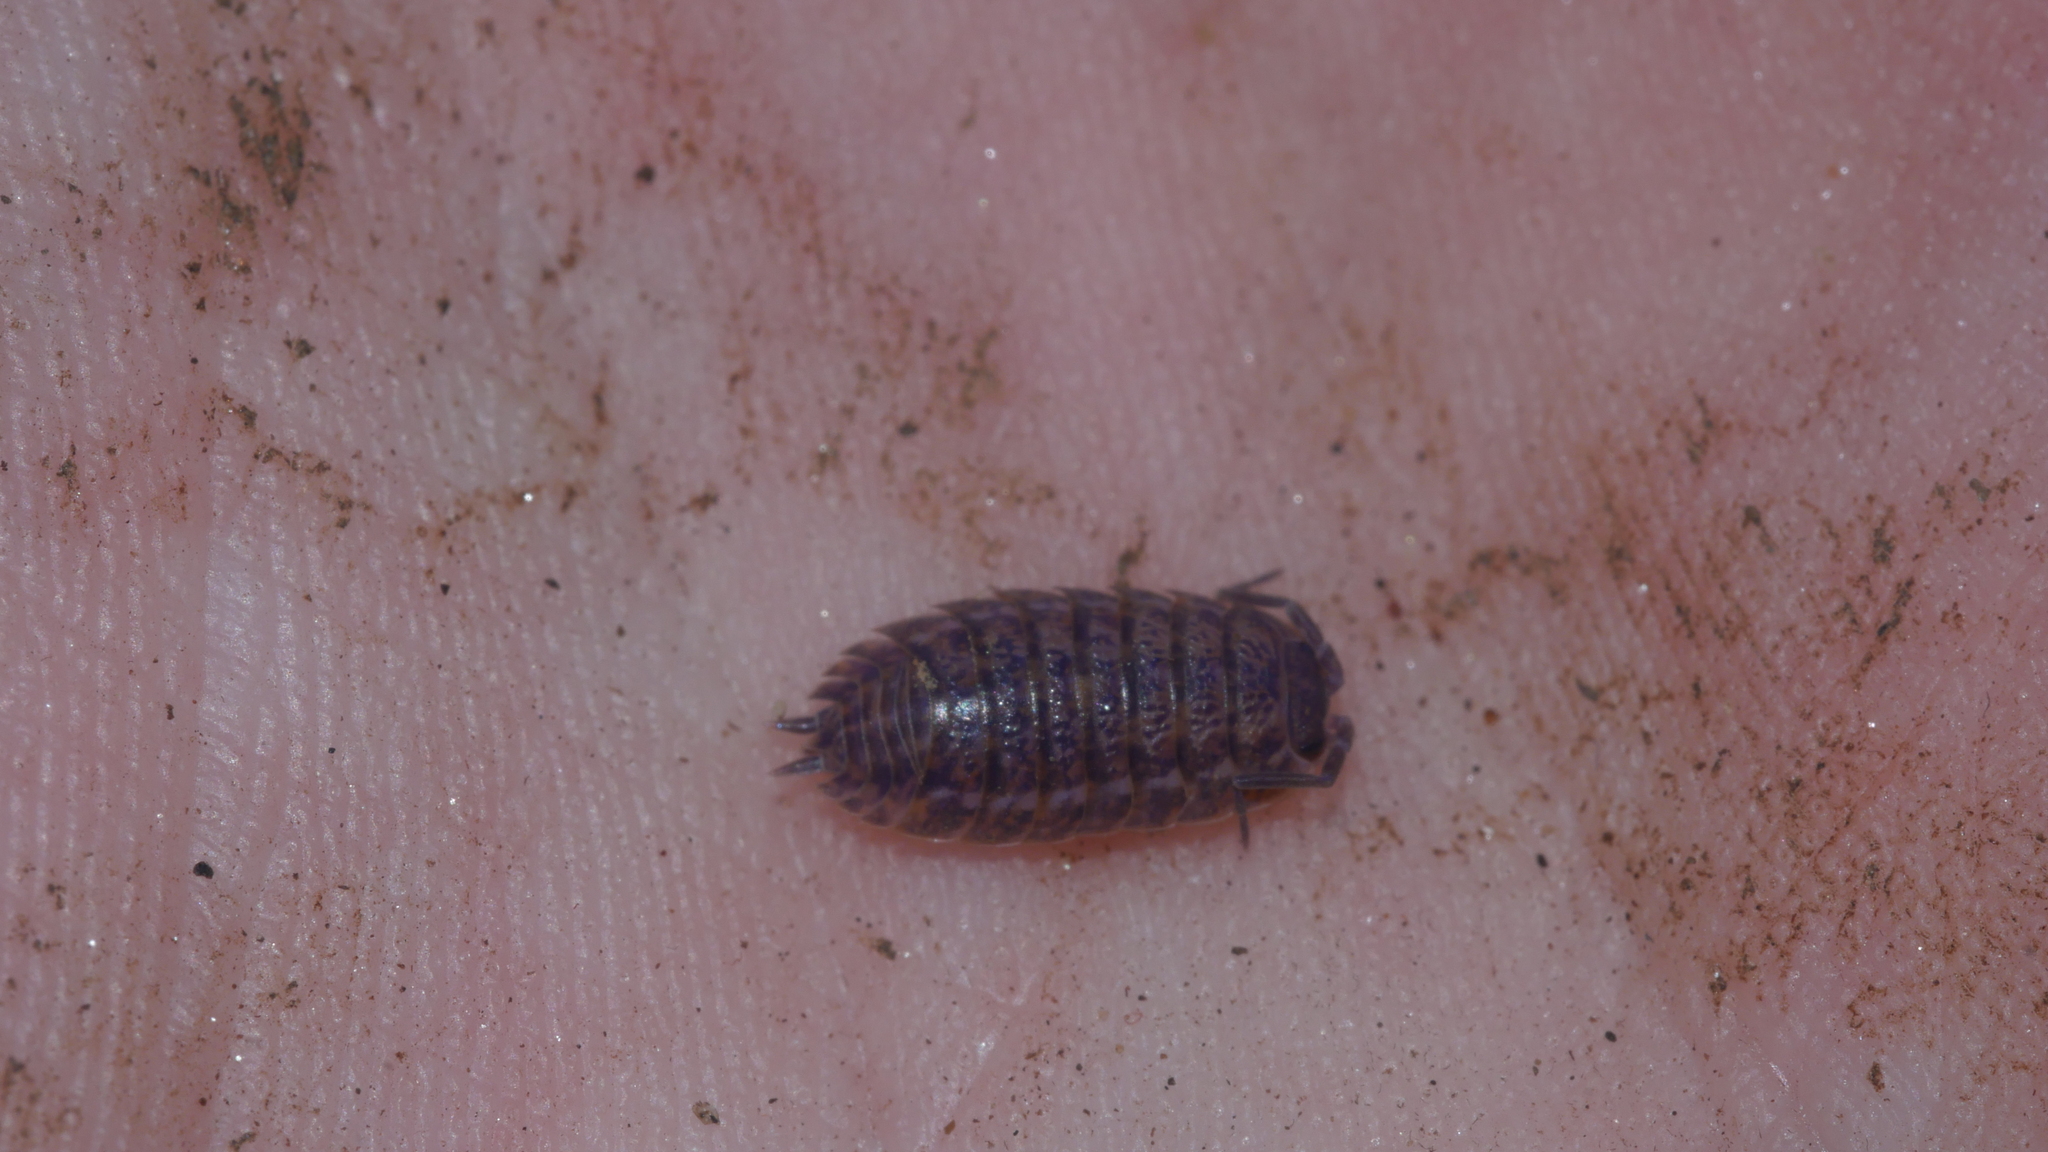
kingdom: Viruses
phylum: Nucleocytoviricota
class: Megaviricetes
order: Pimascovirales
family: Iridoviridae
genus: Iridovirus
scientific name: Iridovirus Invertebrate iridescent virus 31
